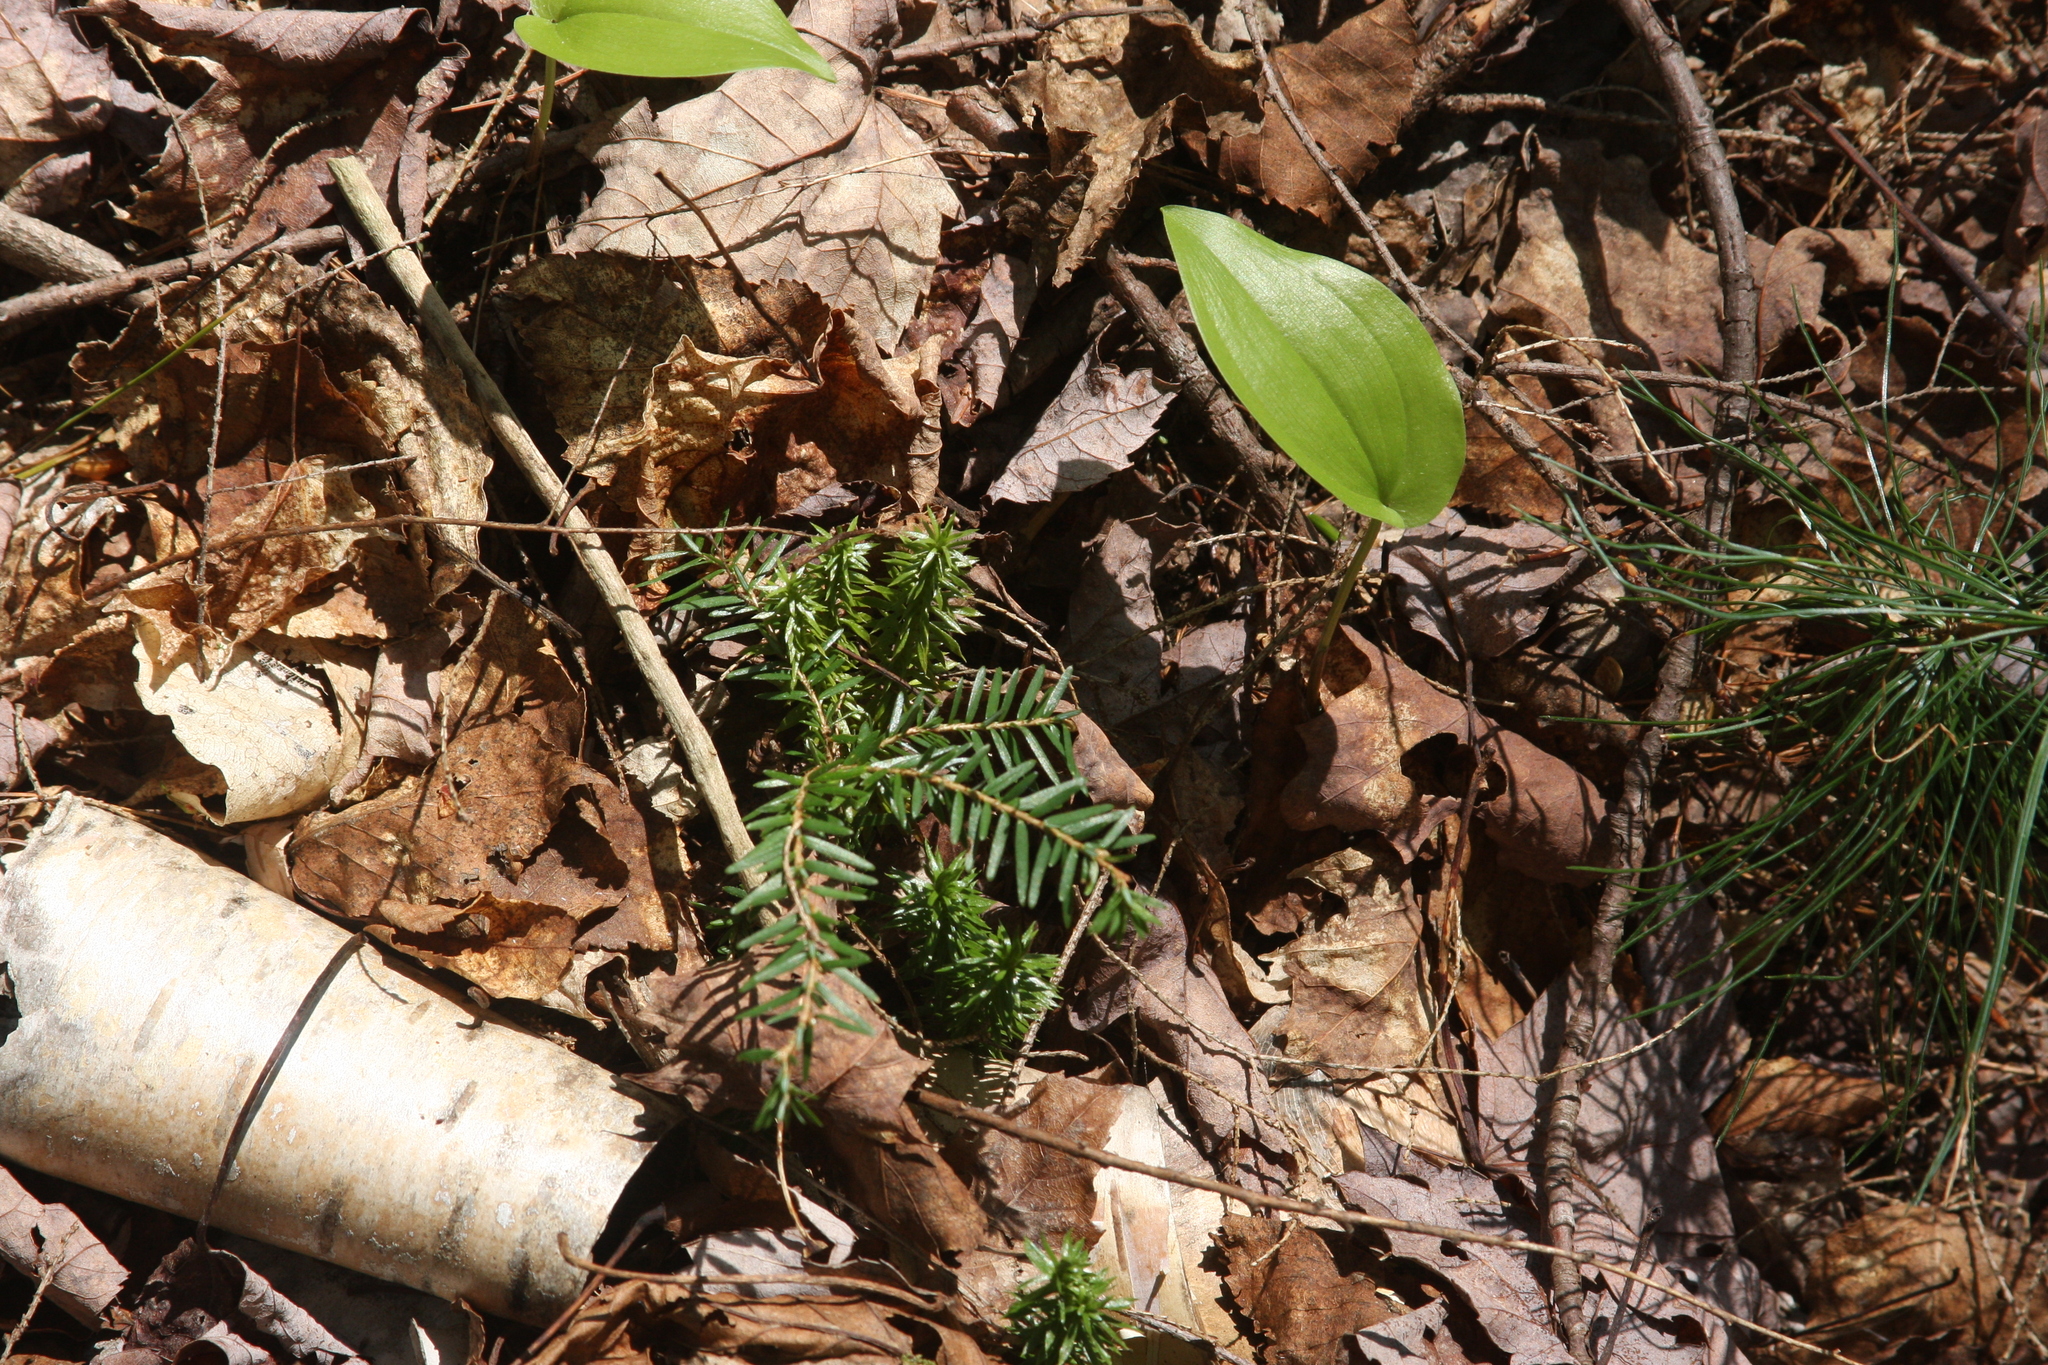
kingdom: Plantae
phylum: Tracheophyta
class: Liliopsida
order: Asparagales
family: Asparagaceae
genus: Maianthemum
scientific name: Maianthemum canadense
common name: False lily-of-the-valley
